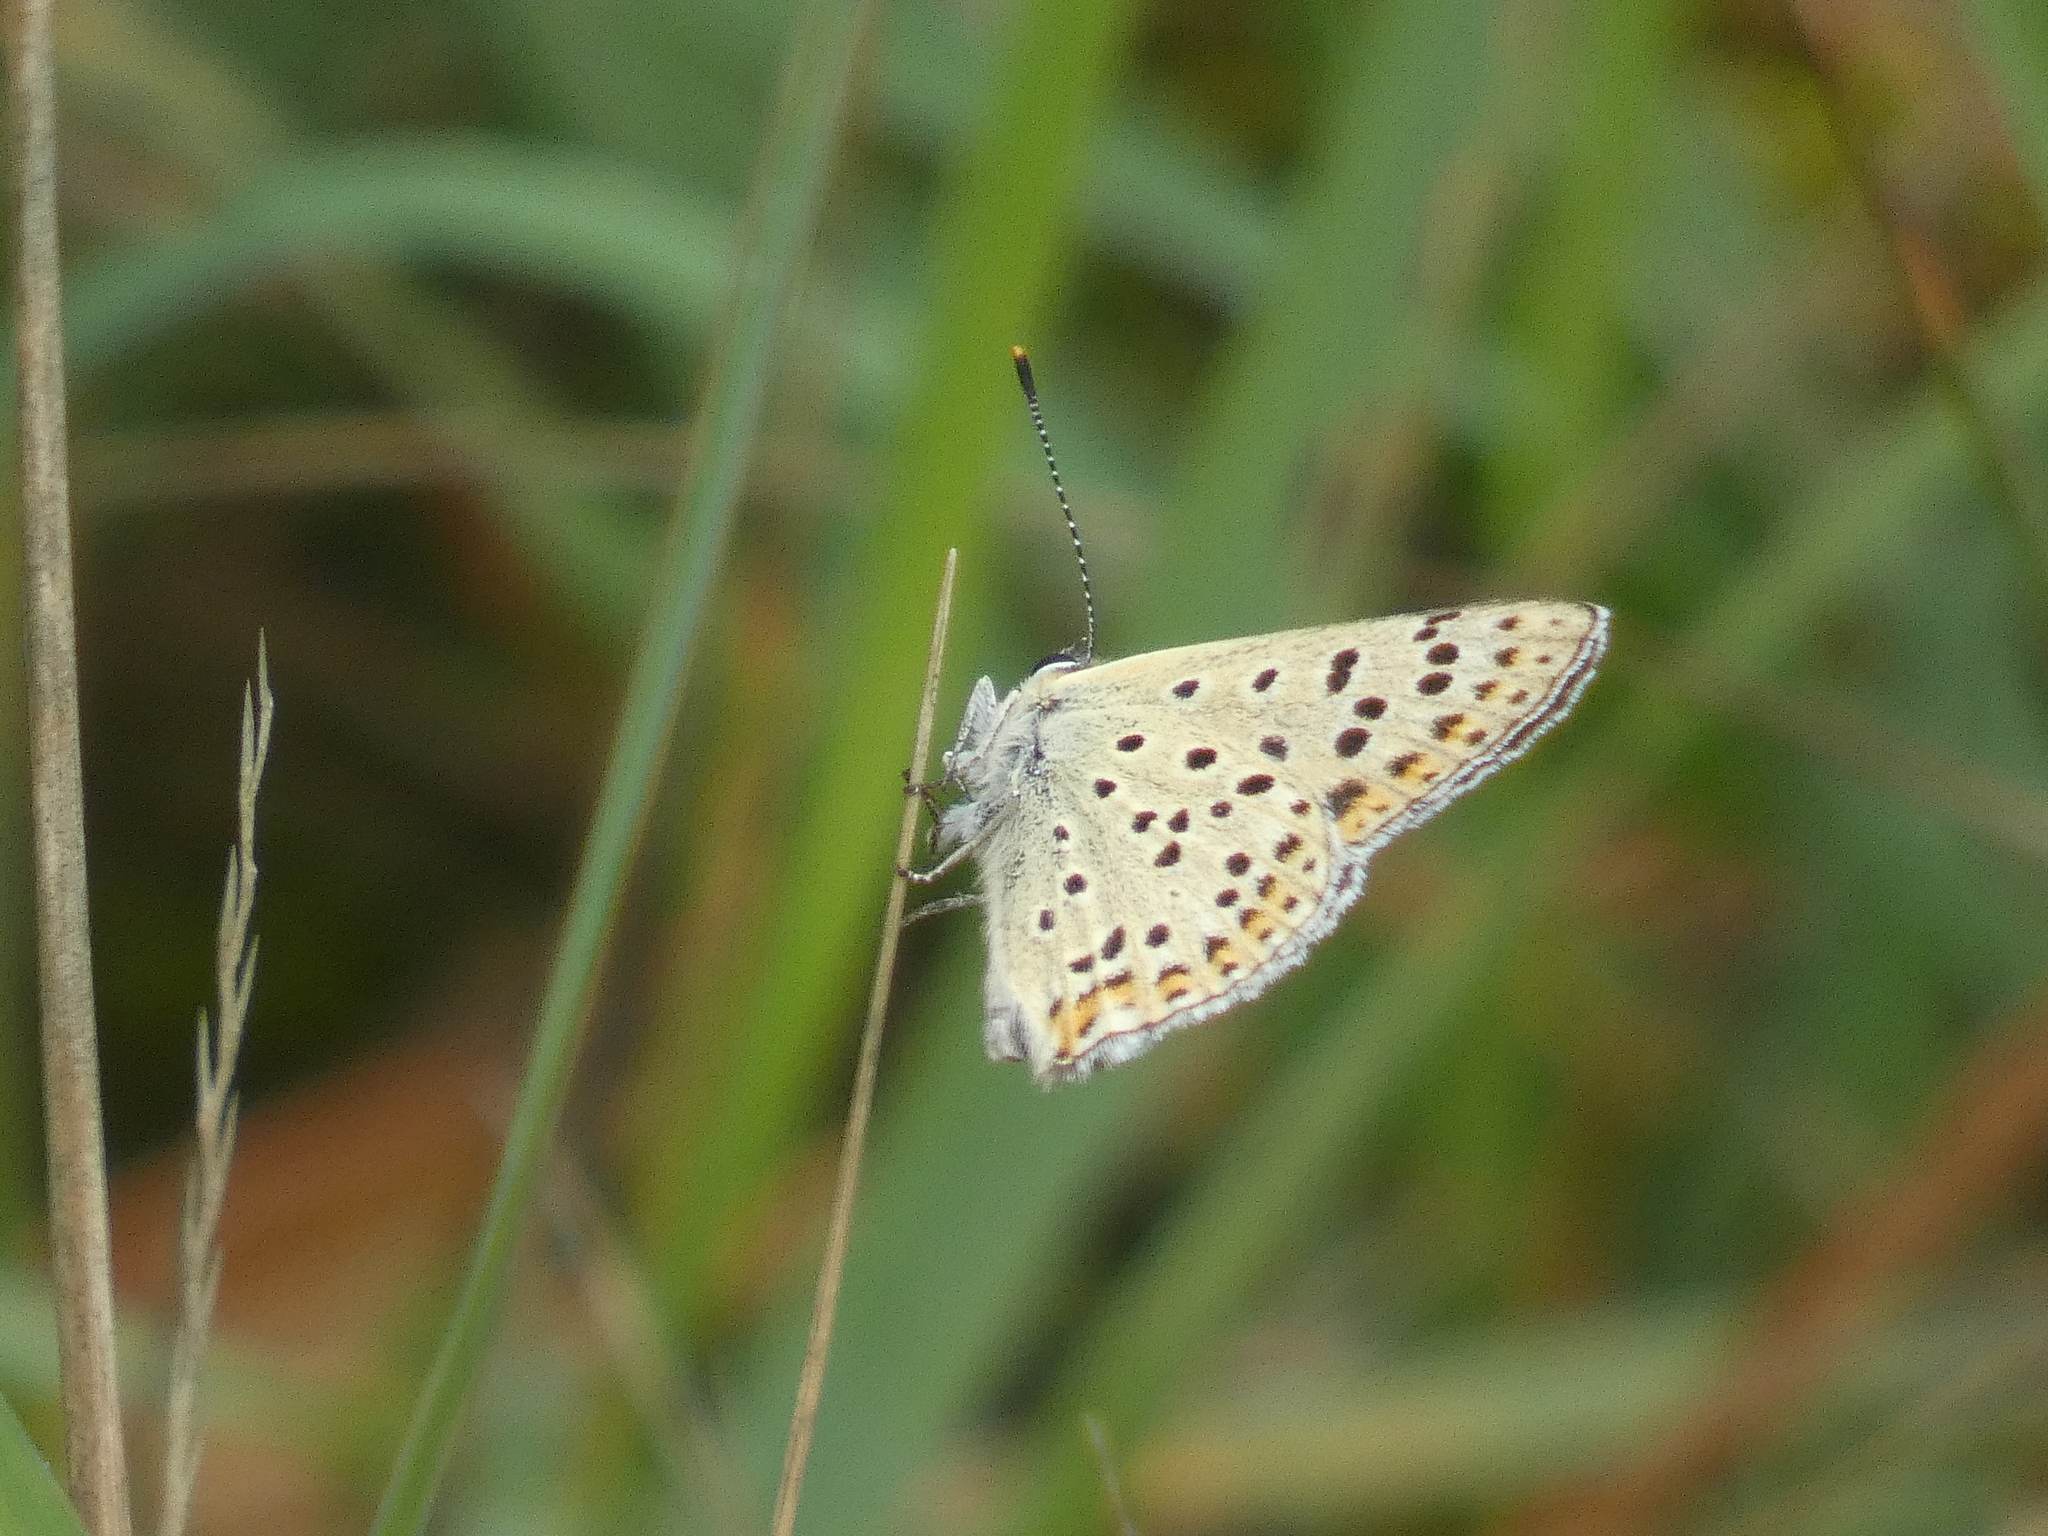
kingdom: Animalia
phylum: Arthropoda
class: Insecta
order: Lepidoptera
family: Lycaenidae
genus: Loweia
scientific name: Loweia tityrus
